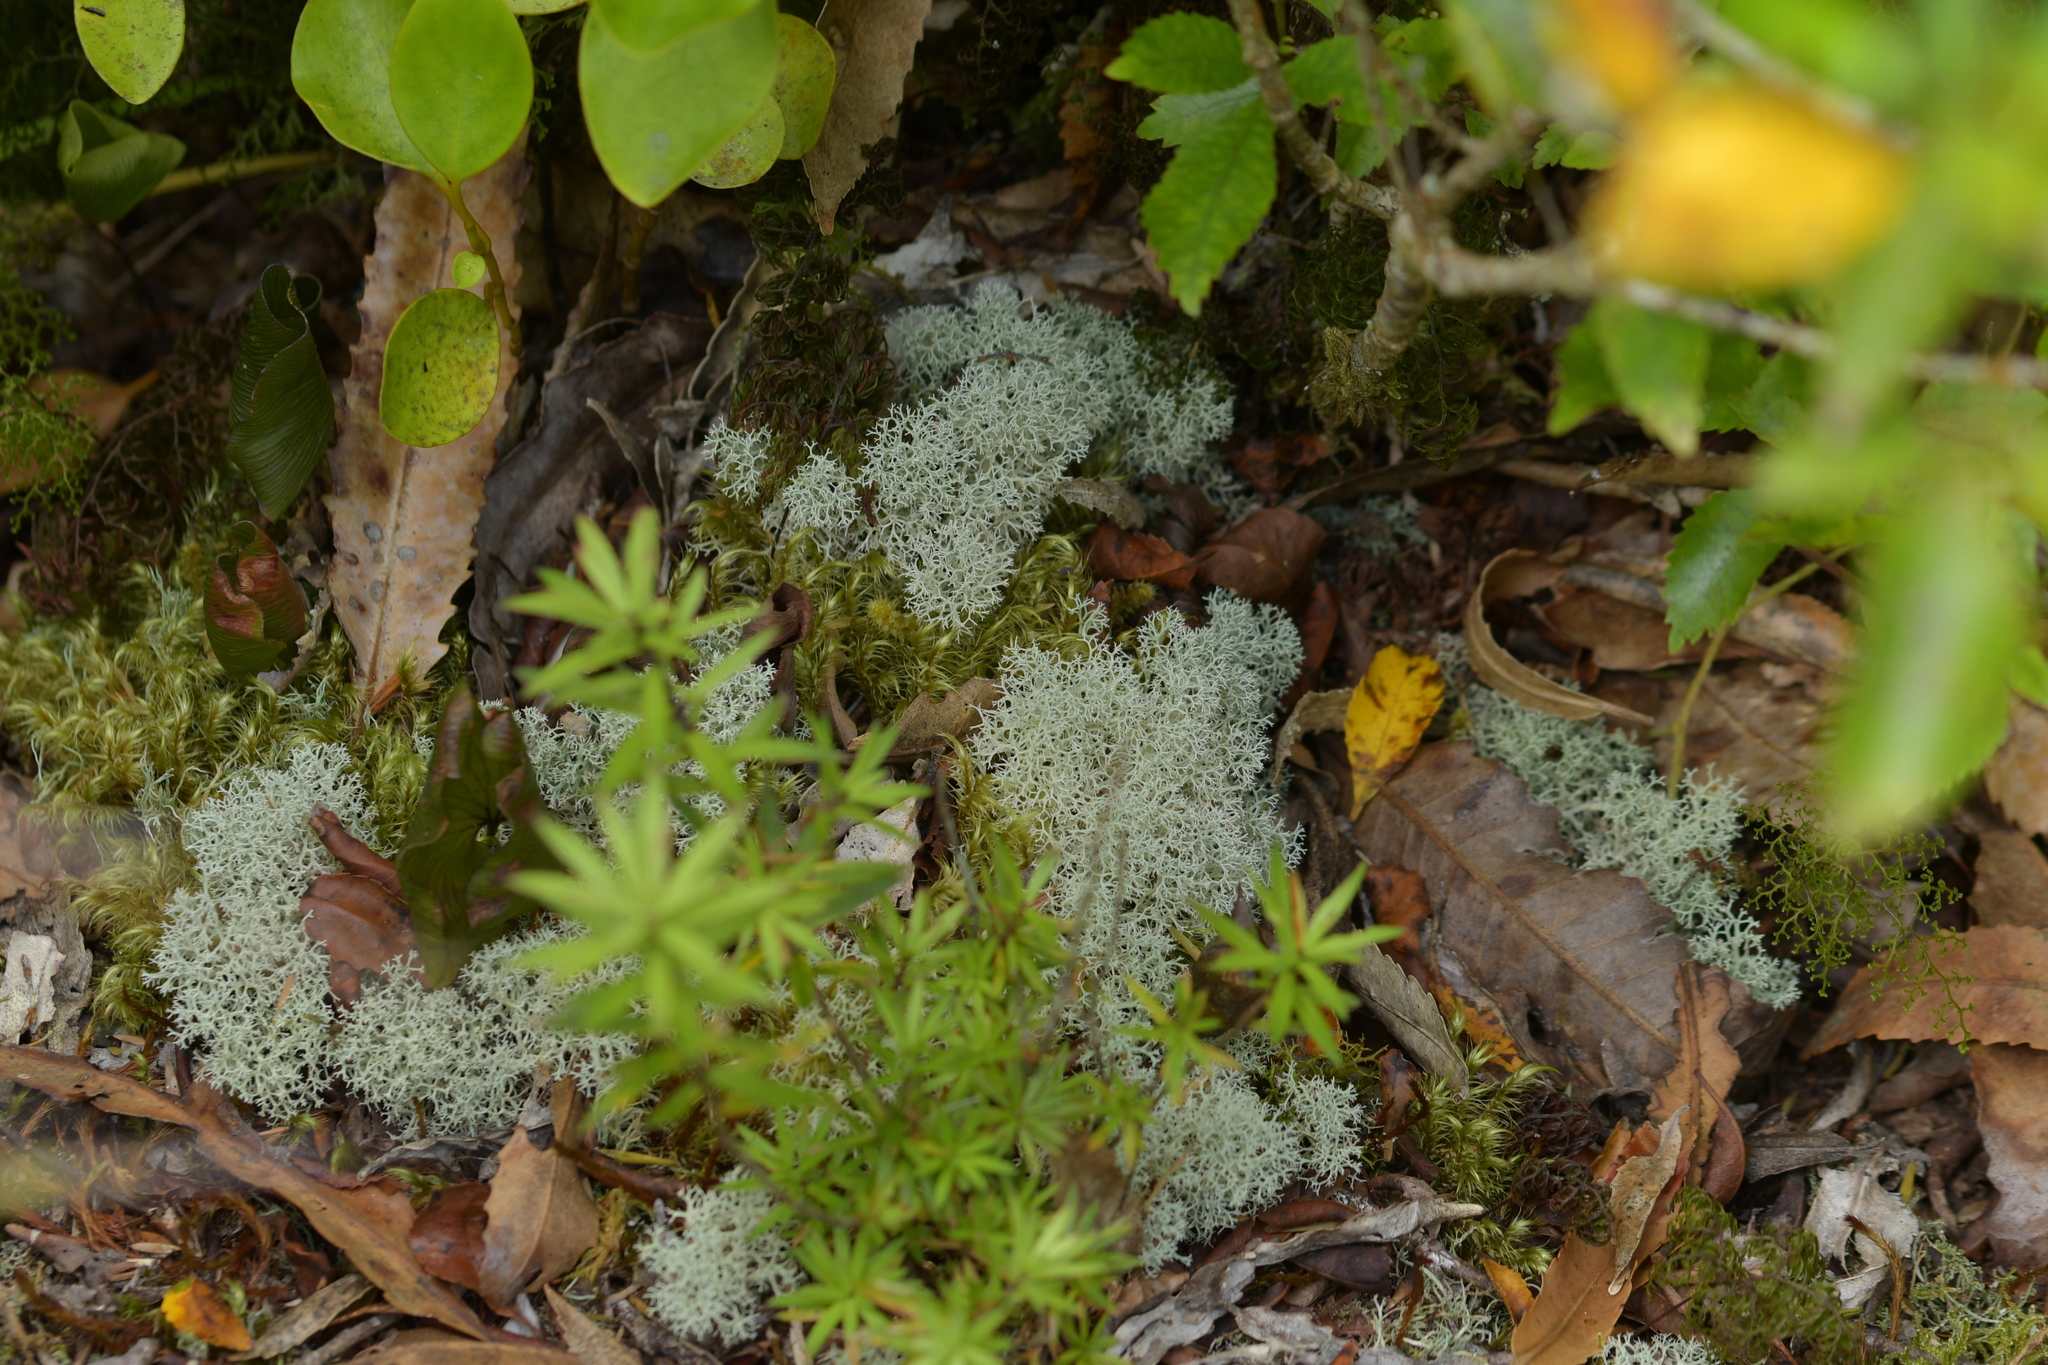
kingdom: Fungi
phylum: Ascomycota
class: Lecanoromycetes
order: Lecanorales
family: Cladoniaceae
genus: Cladonia
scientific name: Cladonia confusa
